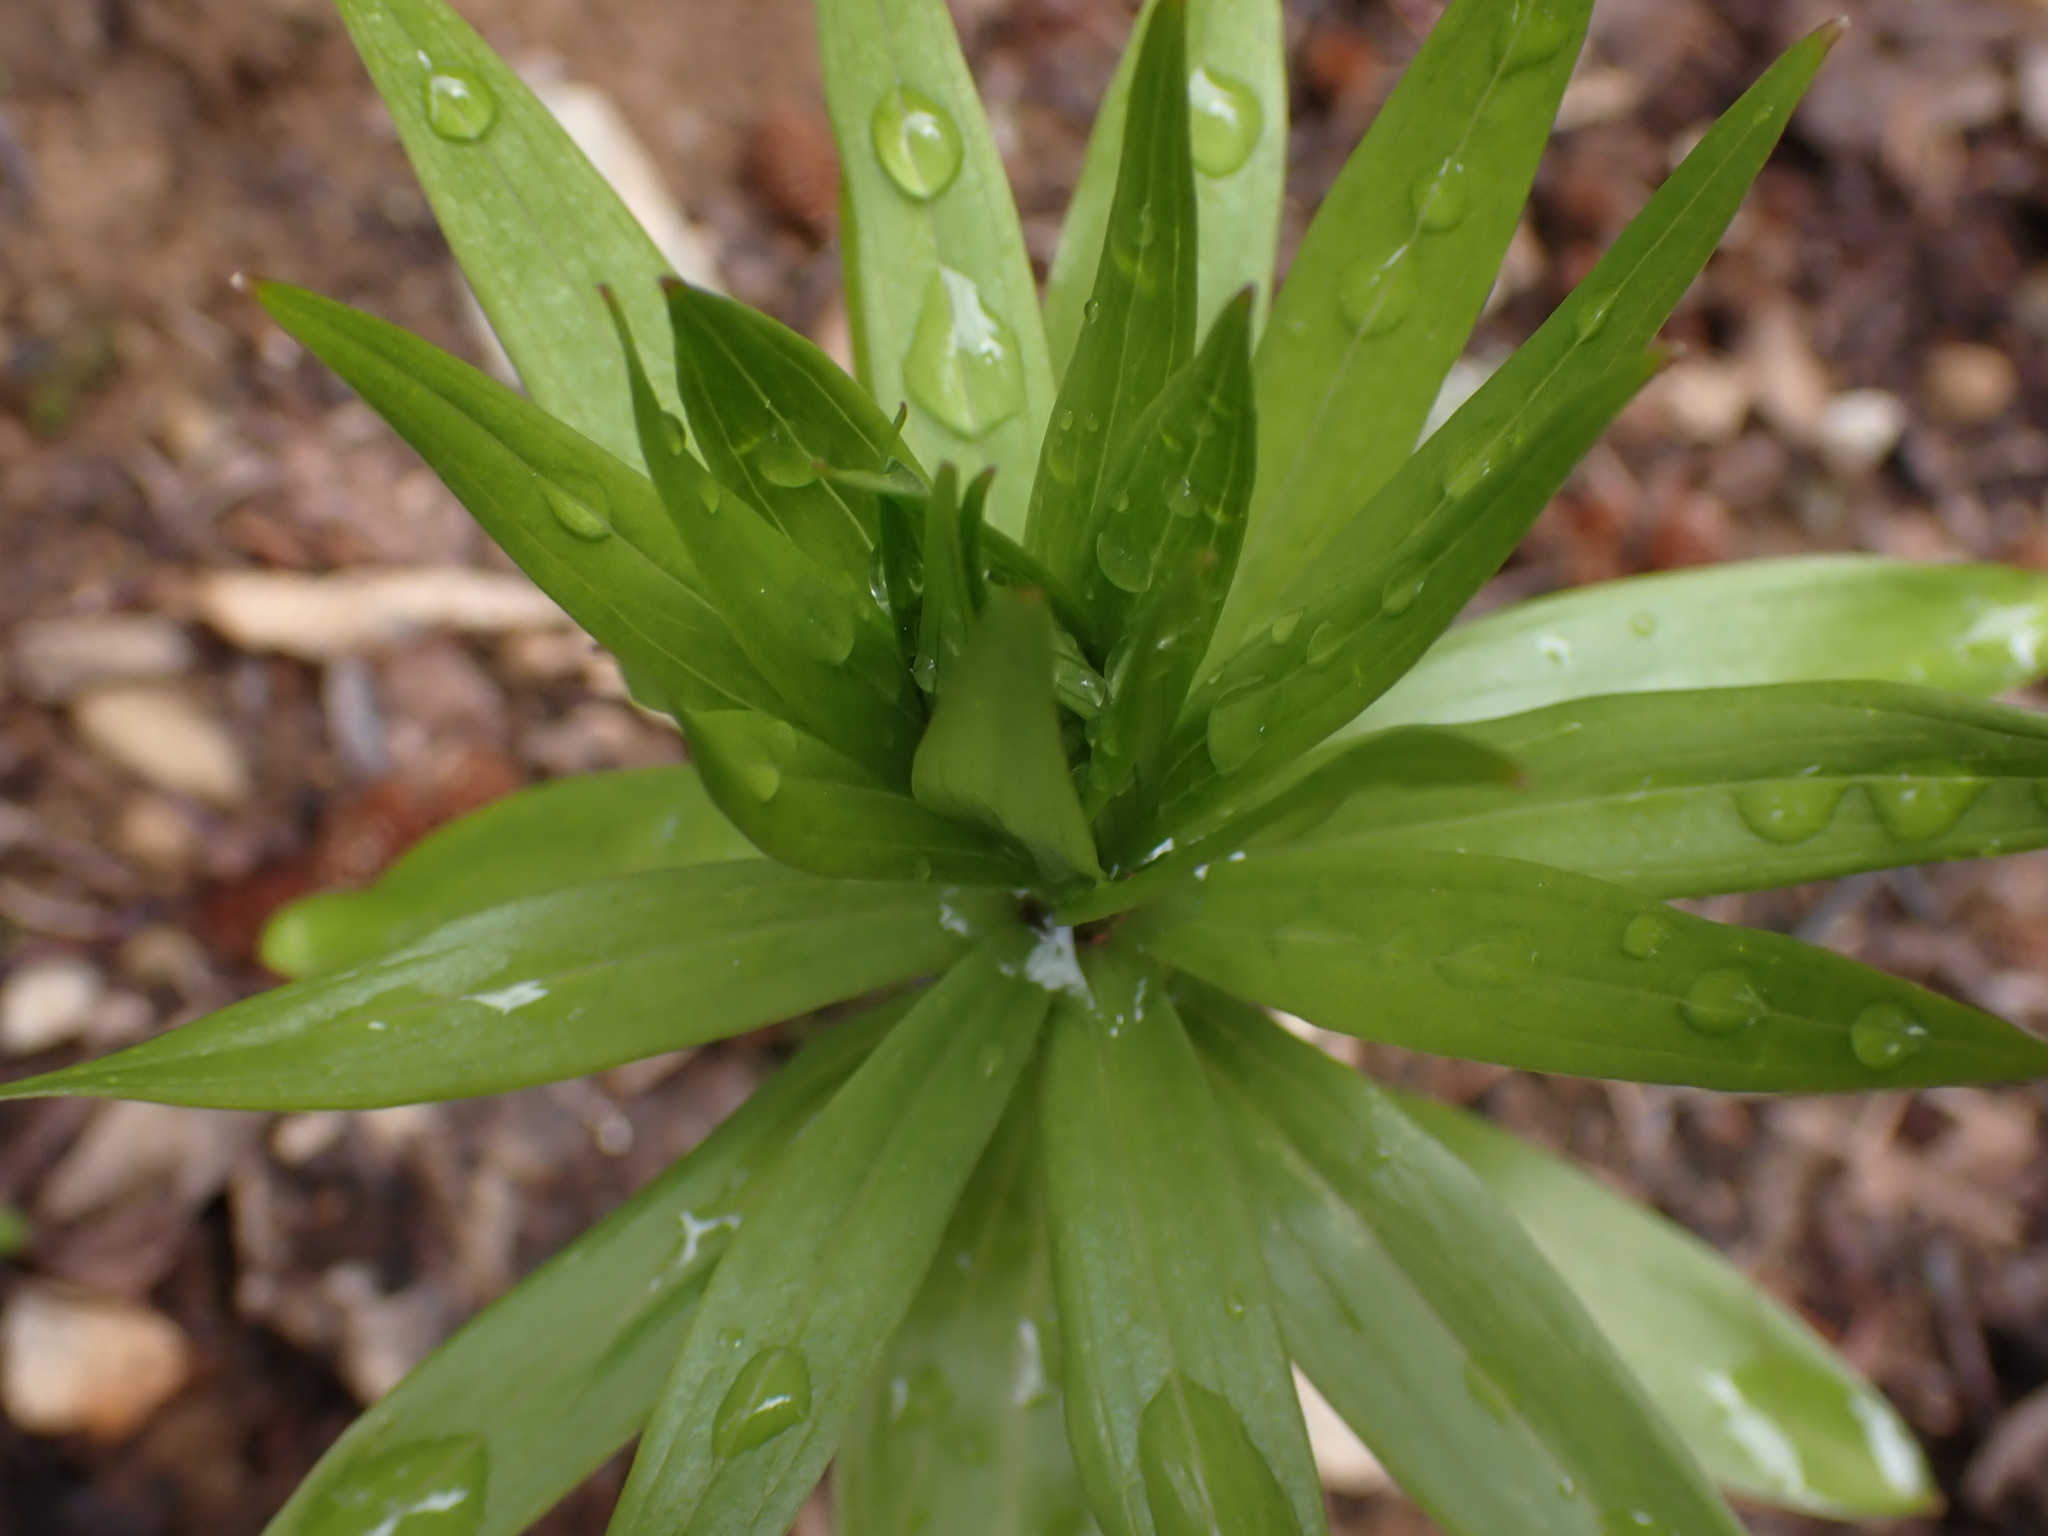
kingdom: Plantae
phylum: Tracheophyta
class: Liliopsida
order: Liliales
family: Liliaceae
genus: Lilium
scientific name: Lilium columbianum
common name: Columbia lily
